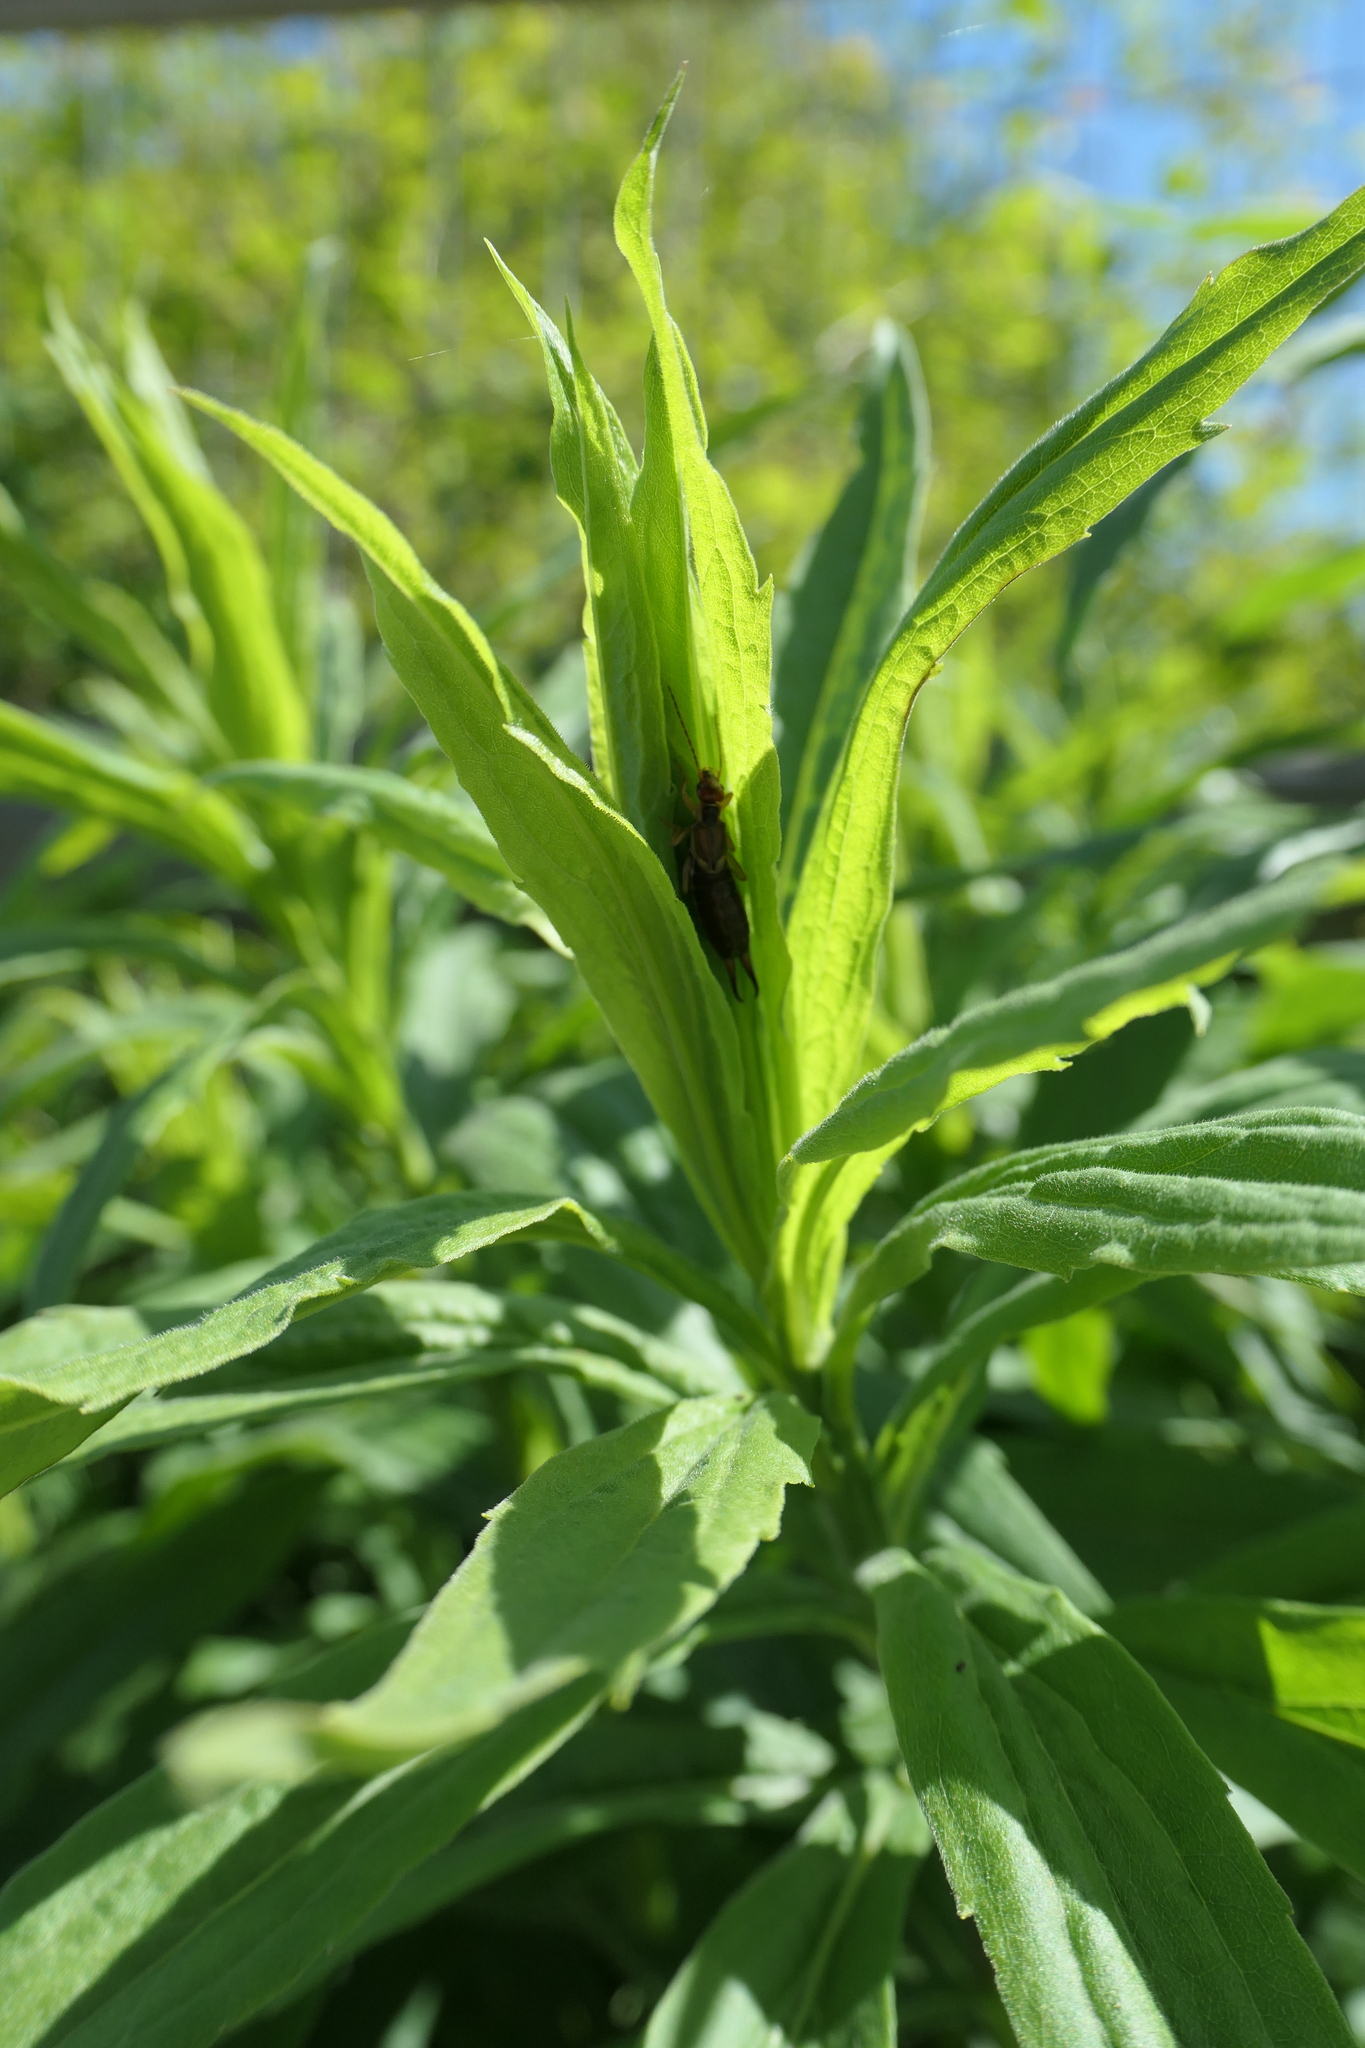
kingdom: Animalia
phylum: Arthropoda
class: Insecta
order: Dermaptera
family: Forficulidae
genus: Forficula
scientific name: Forficula
